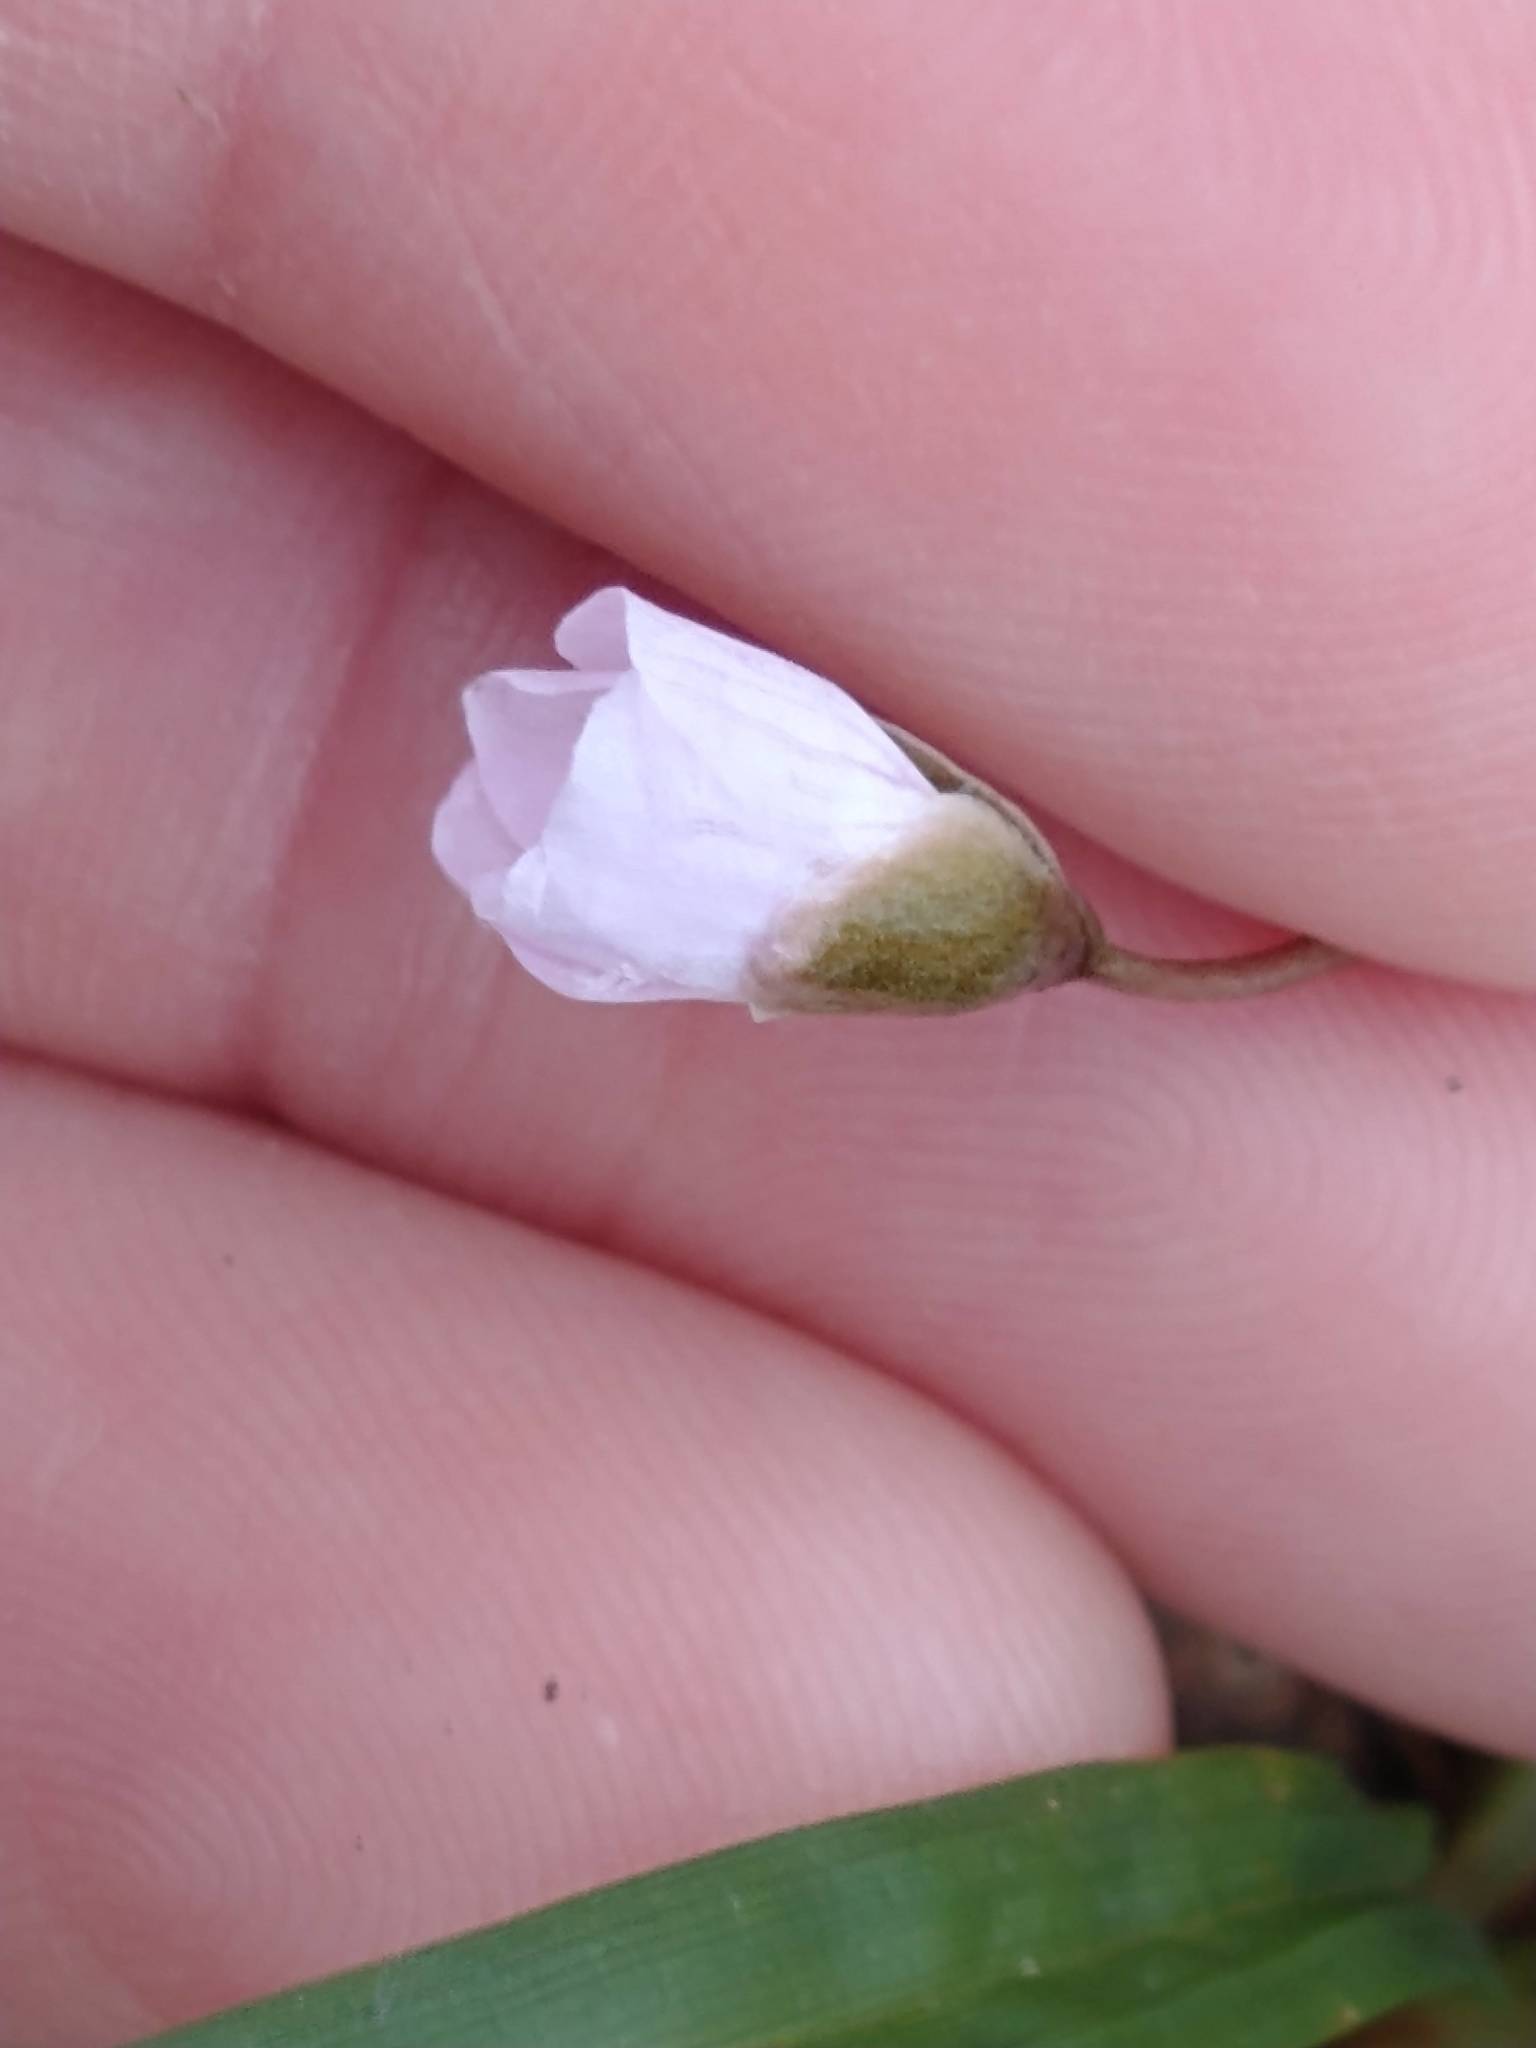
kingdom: Plantae
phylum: Tracheophyta
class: Magnoliopsida
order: Caryophyllales
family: Montiaceae
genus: Claytonia
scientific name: Claytonia caroliniana
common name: Carolina spring beauty
